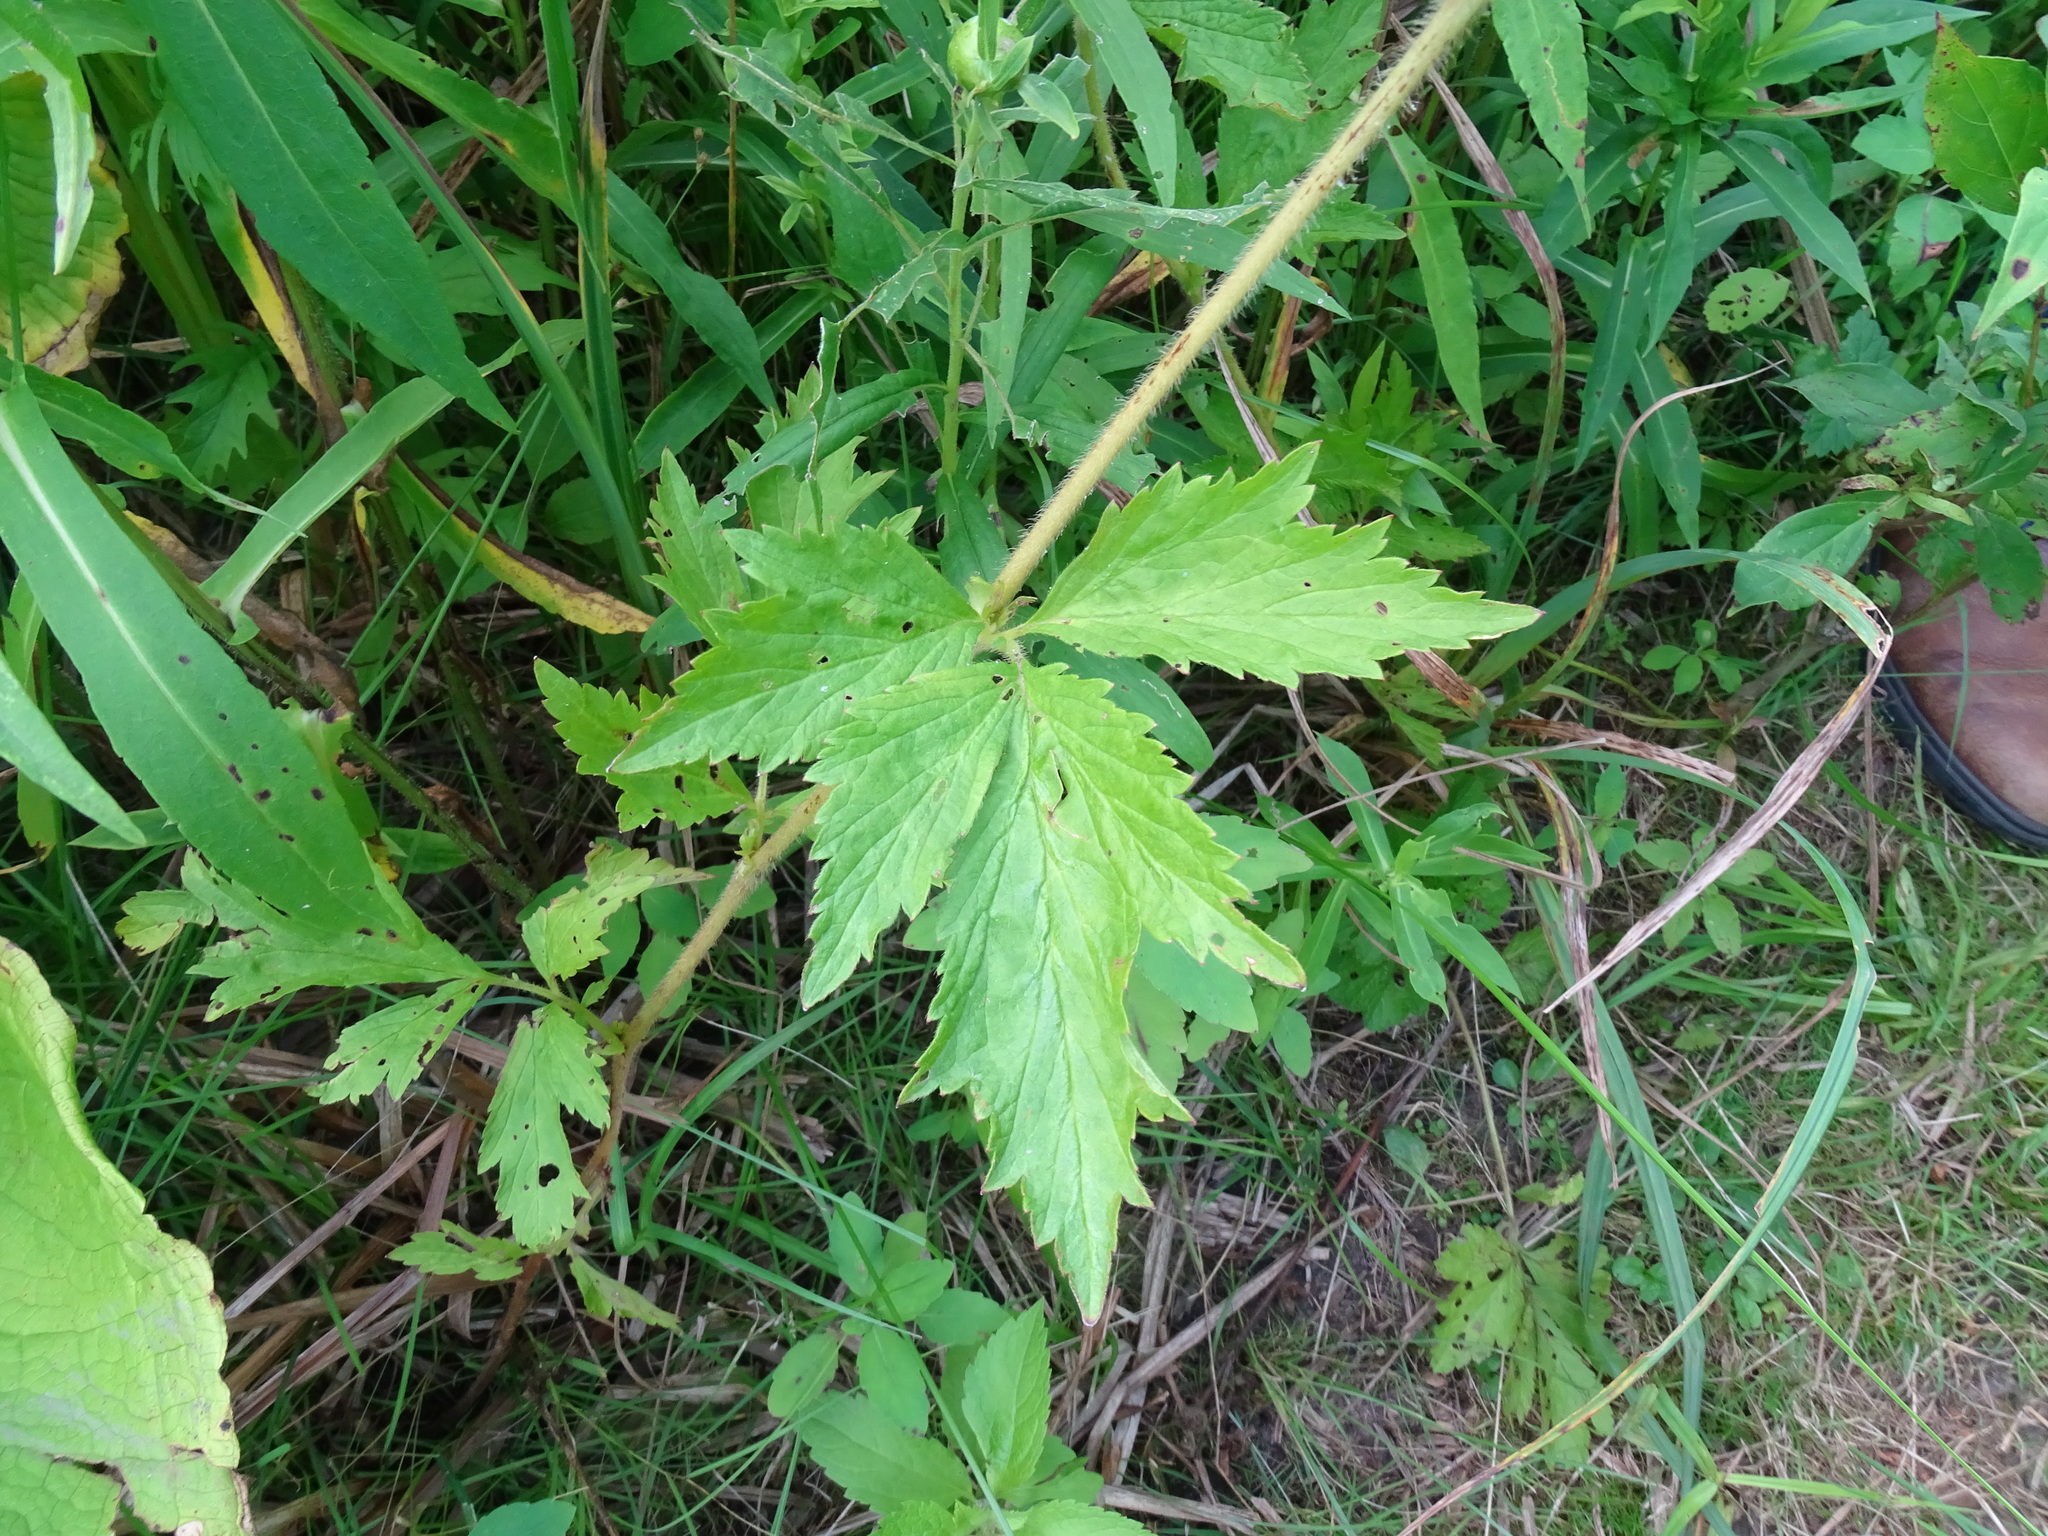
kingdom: Plantae
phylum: Tracheophyta
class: Magnoliopsida
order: Rosales
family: Rosaceae
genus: Geum
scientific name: Geum laciniatum
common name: Rough avens
